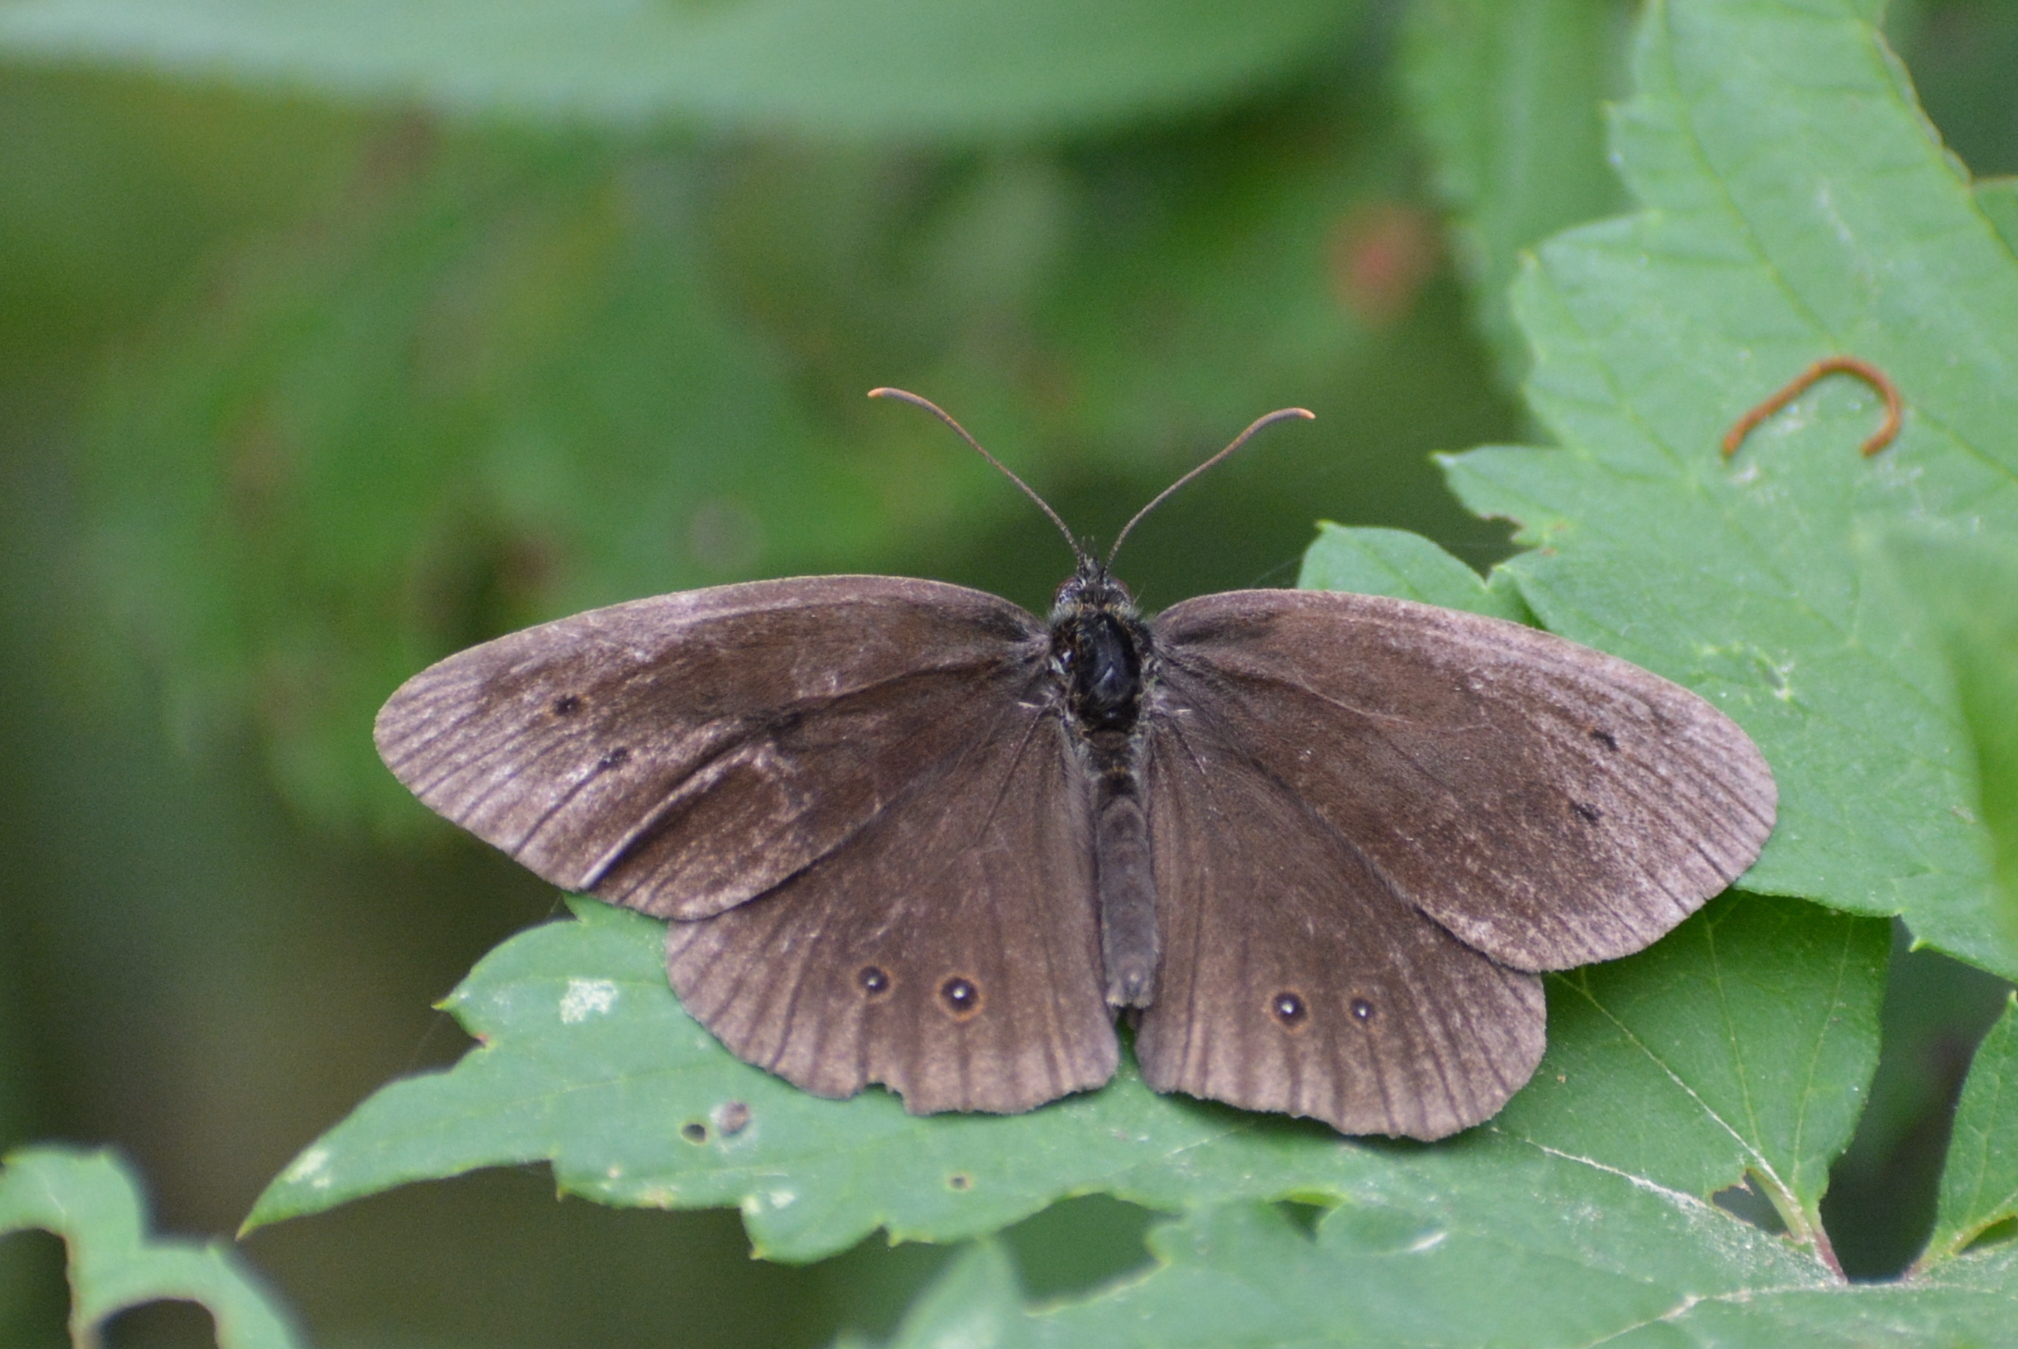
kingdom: Animalia
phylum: Arthropoda
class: Insecta
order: Lepidoptera
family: Nymphalidae
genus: Aphantopus
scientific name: Aphantopus hyperantus
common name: Ringlet
